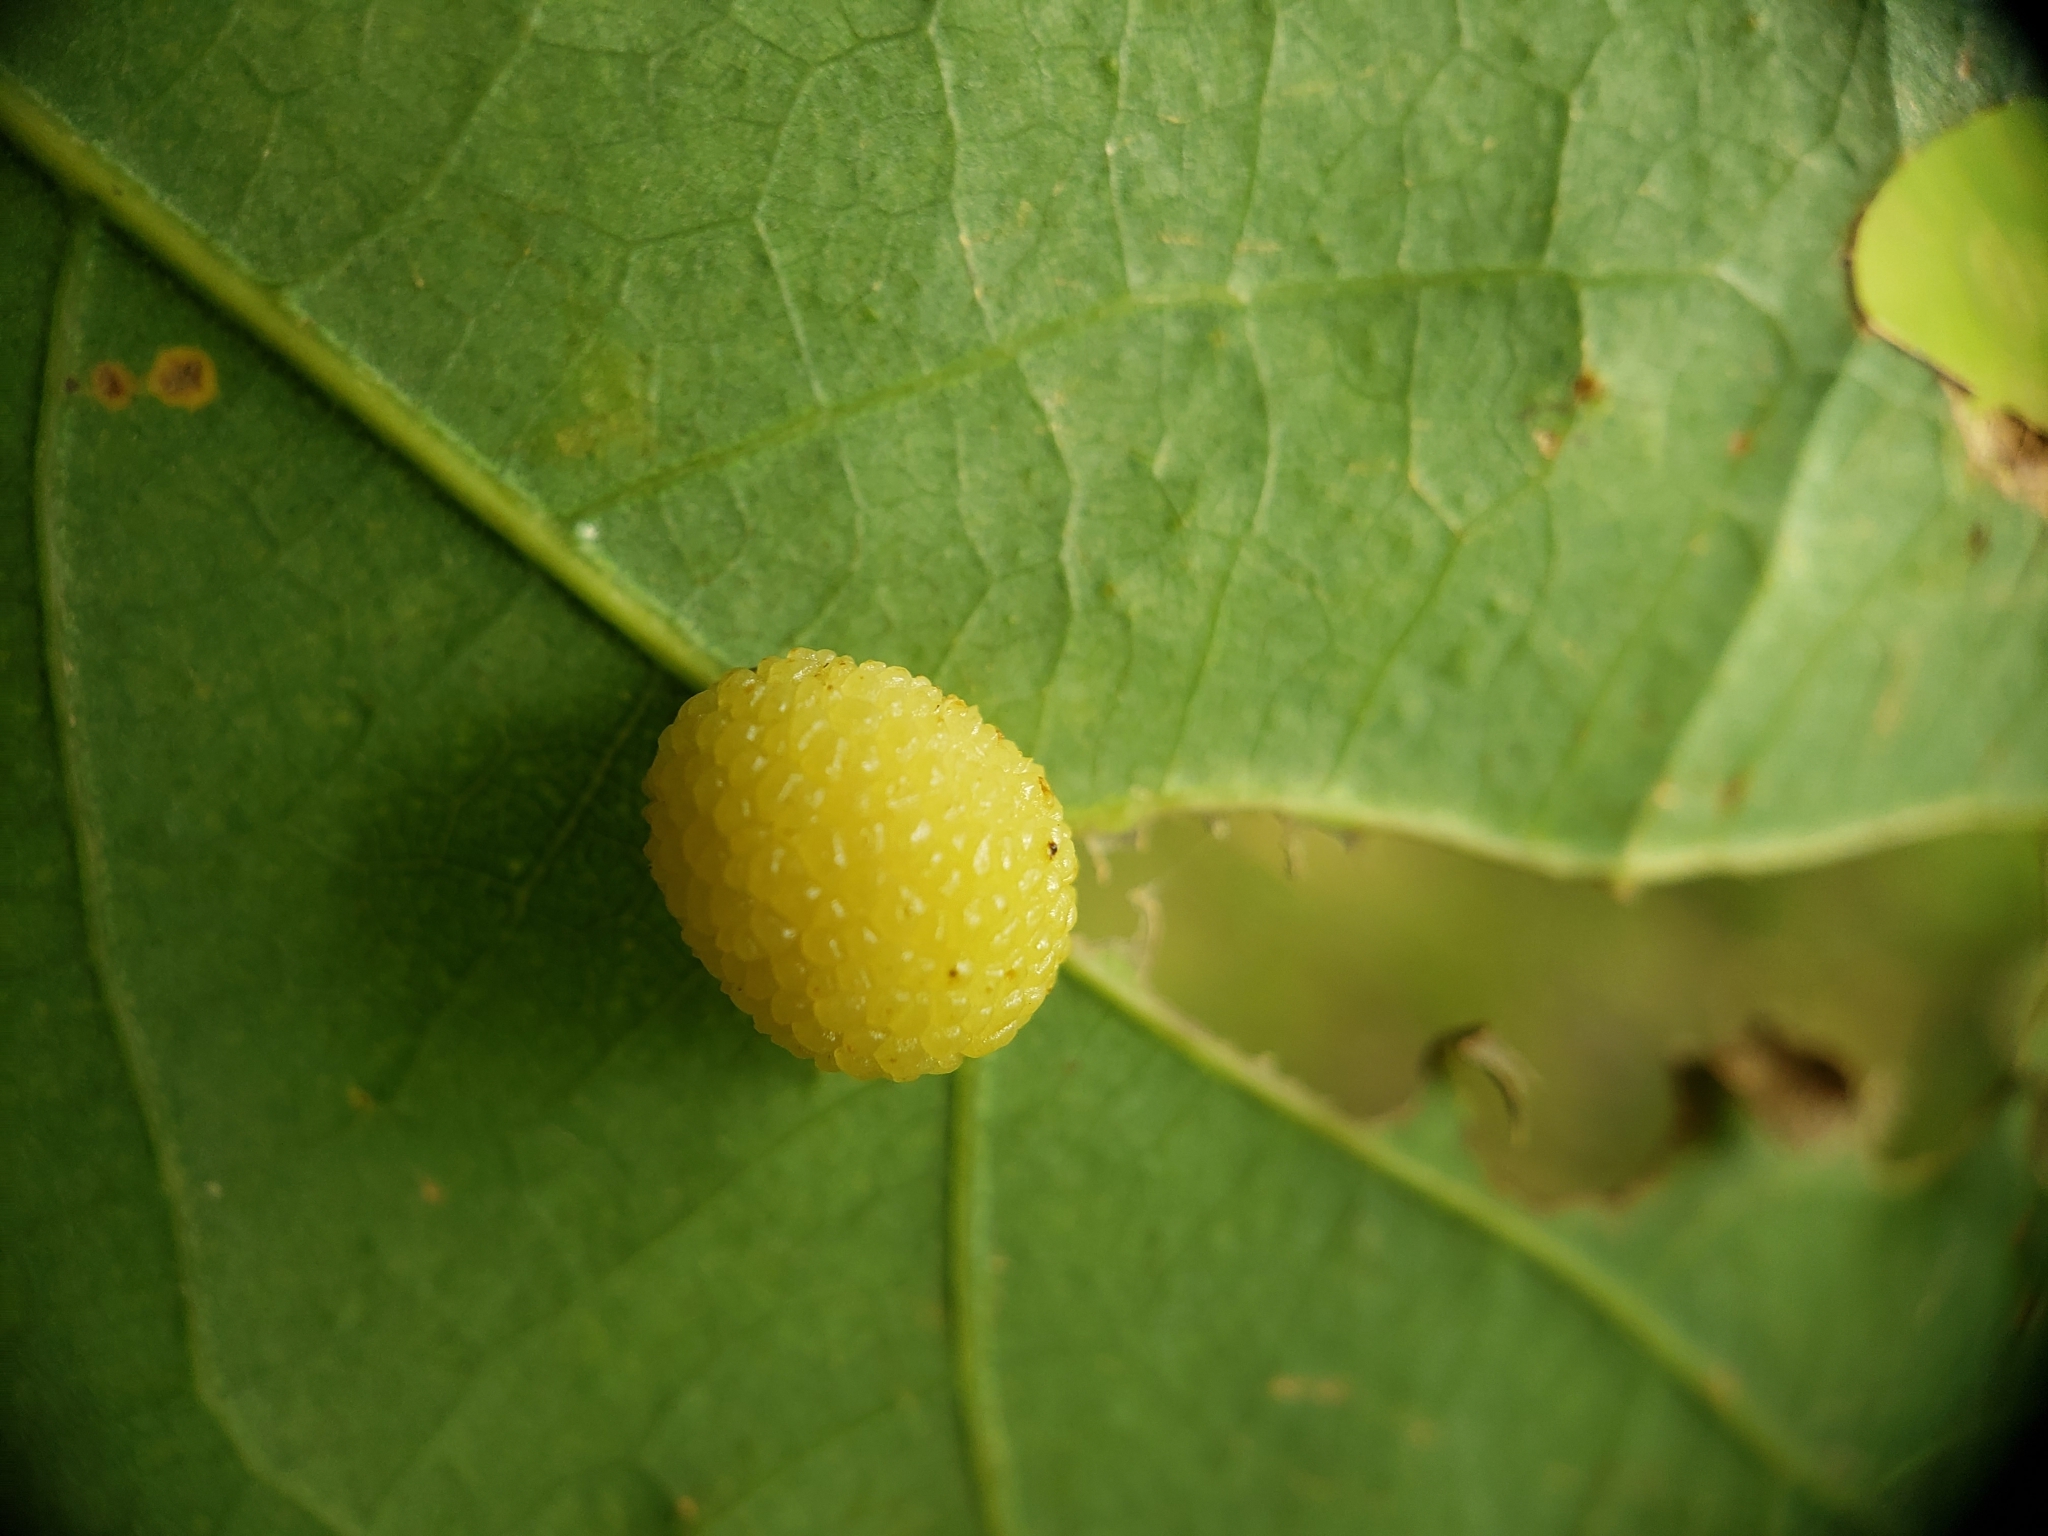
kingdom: Animalia
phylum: Arthropoda
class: Insecta
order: Hymenoptera
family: Cynipidae
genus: Acraspis
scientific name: Acraspis
